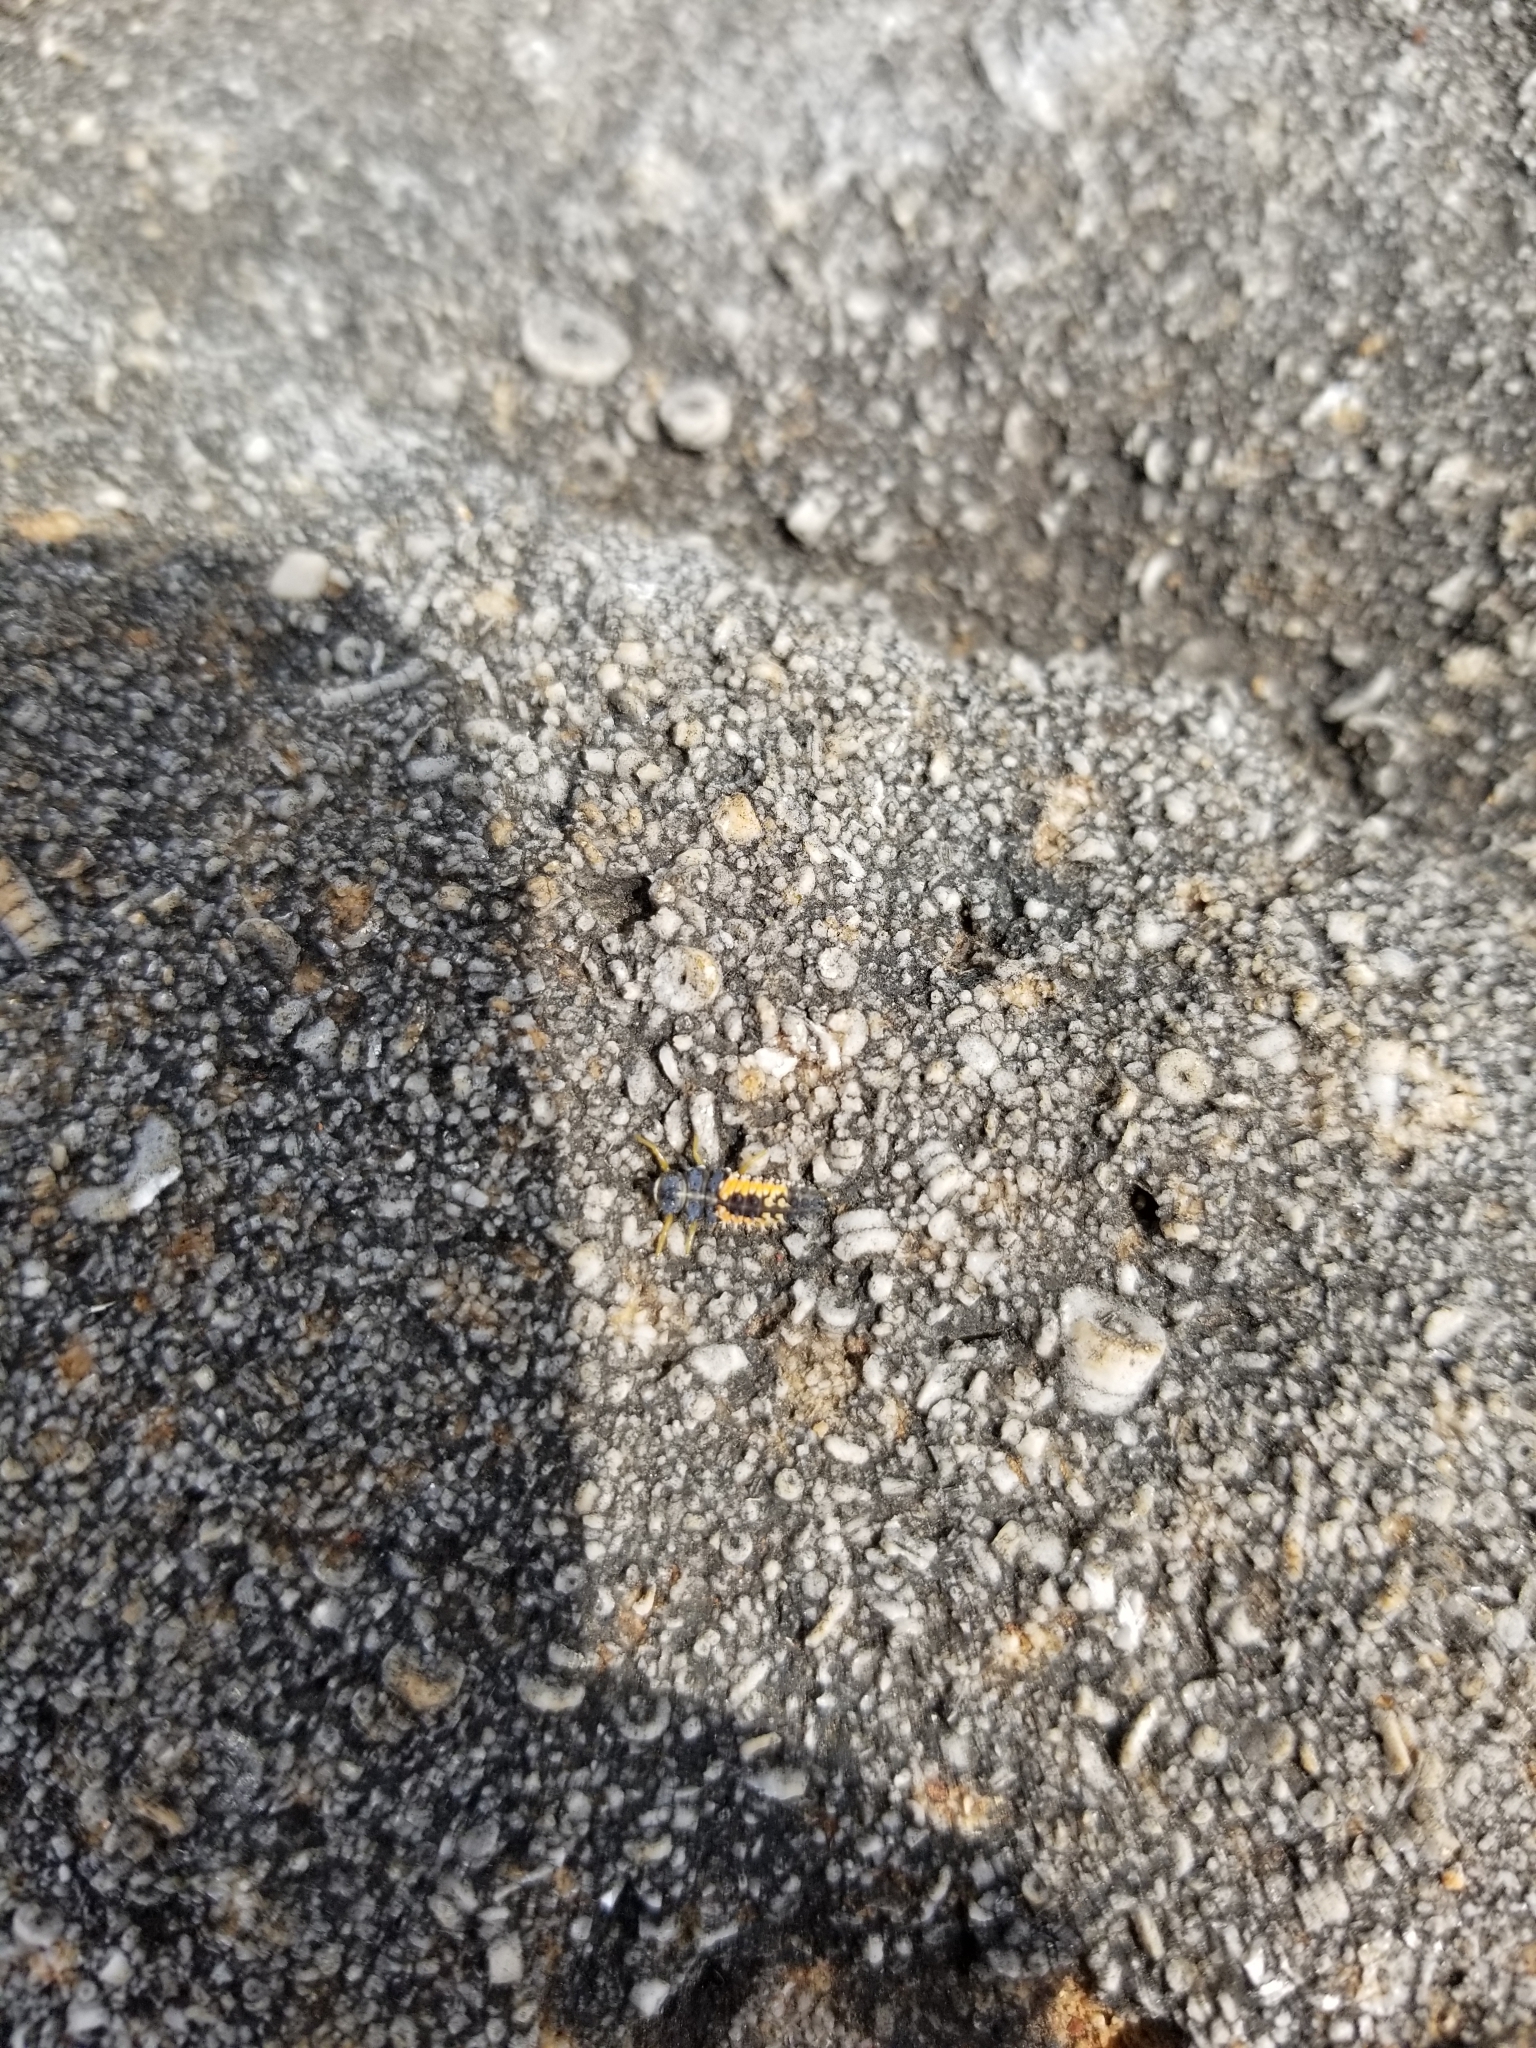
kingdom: Animalia
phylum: Arthropoda
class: Insecta
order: Coleoptera
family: Coccinellidae
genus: Harmonia
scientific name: Harmonia axyridis
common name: Harlequin ladybird
